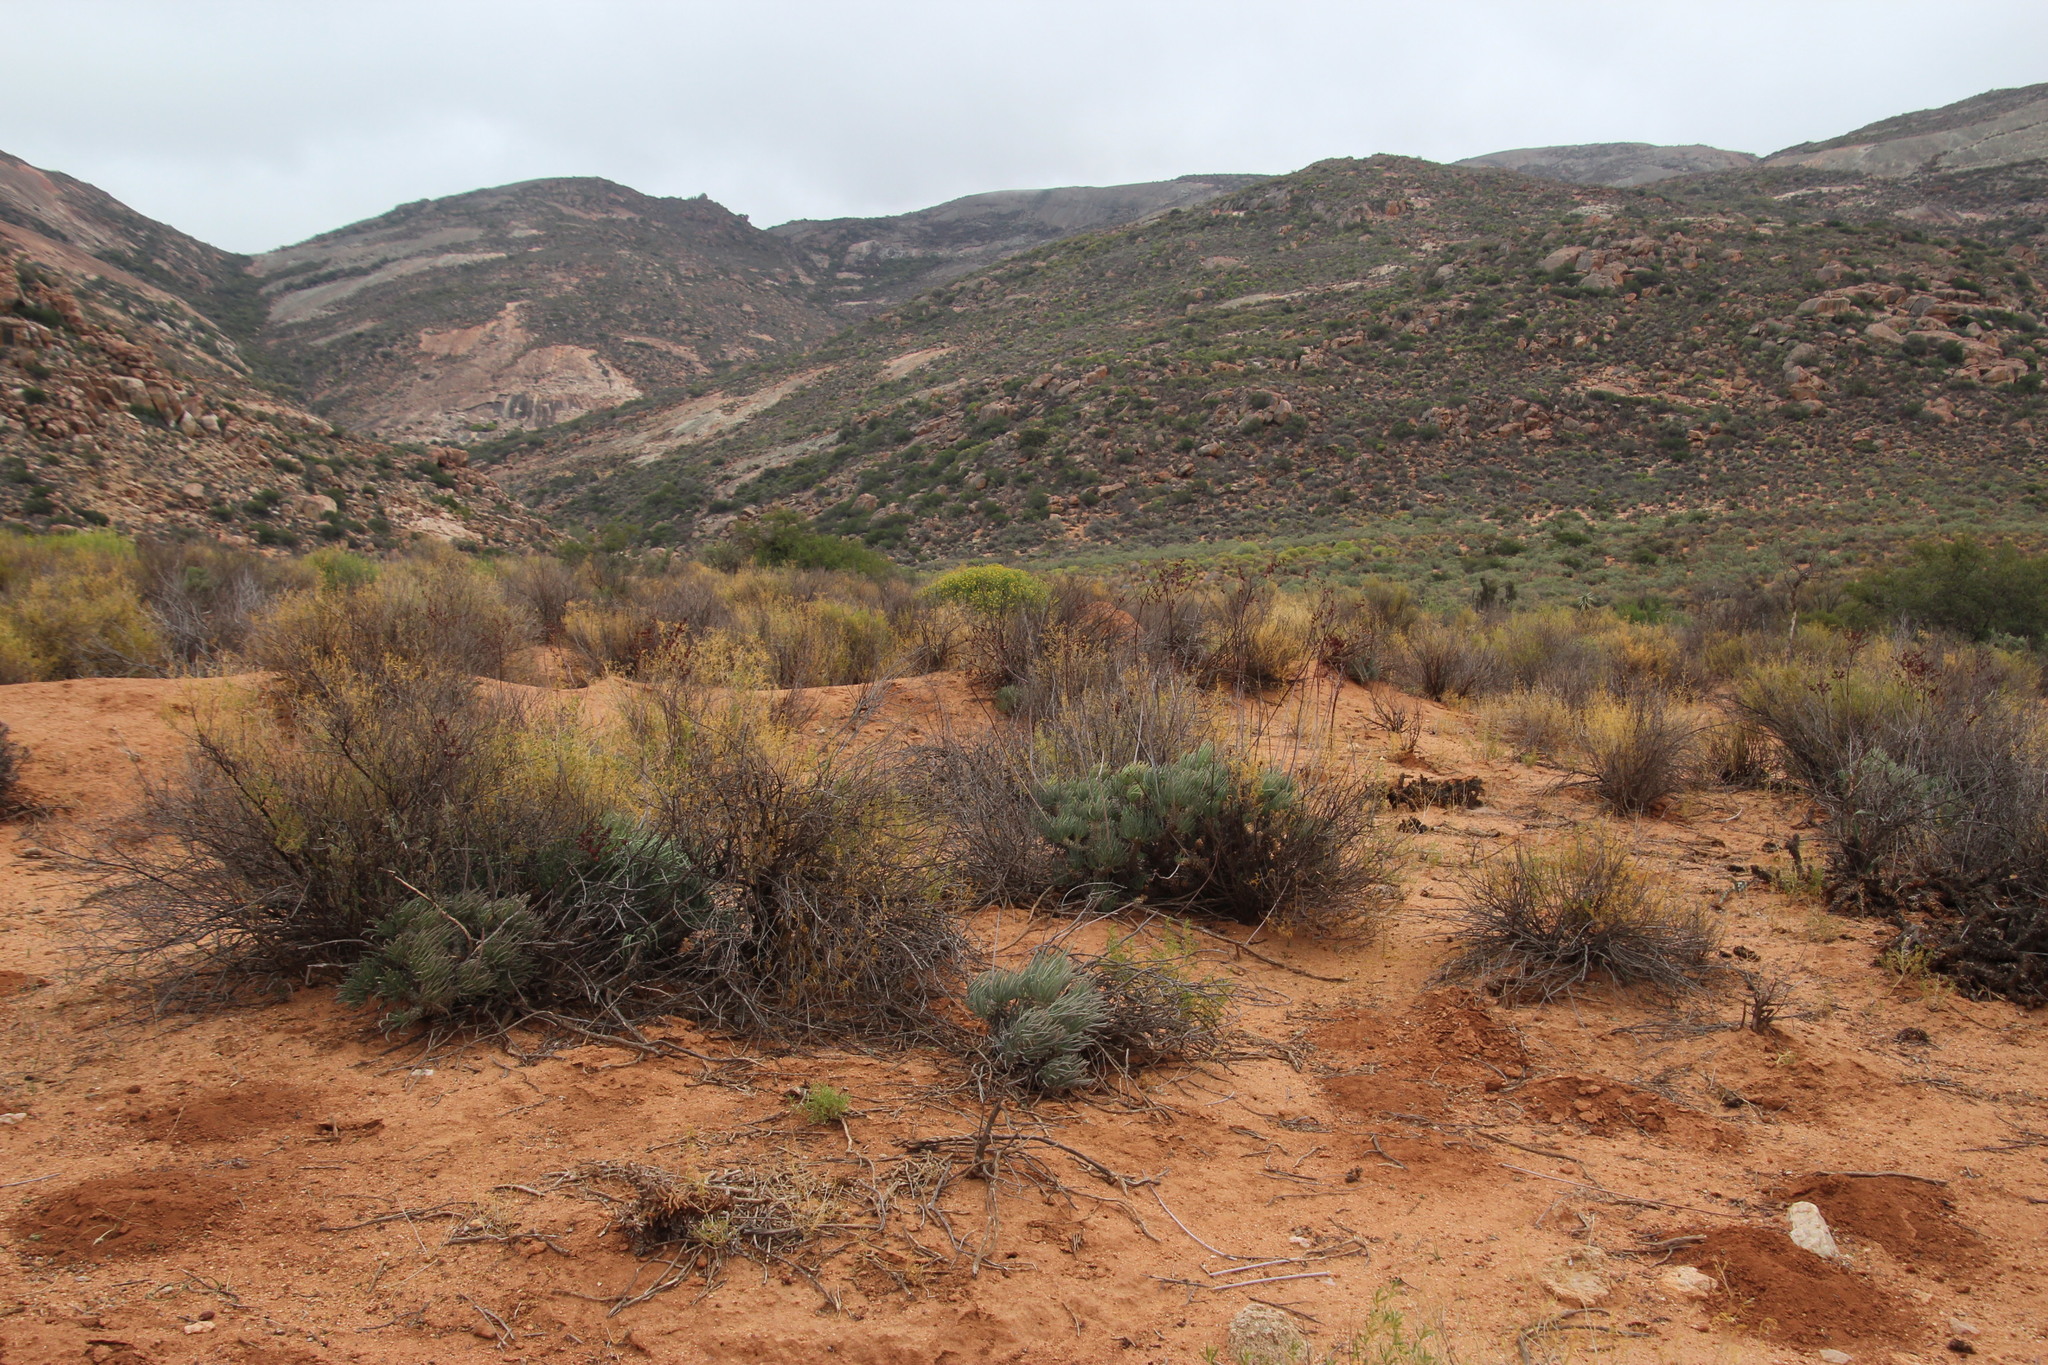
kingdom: Plantae
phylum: Tracheophyta
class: Magnoliopsida
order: Saxifragales
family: Crassulaceae
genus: Tylecodon
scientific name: Tylecodon wallichii
